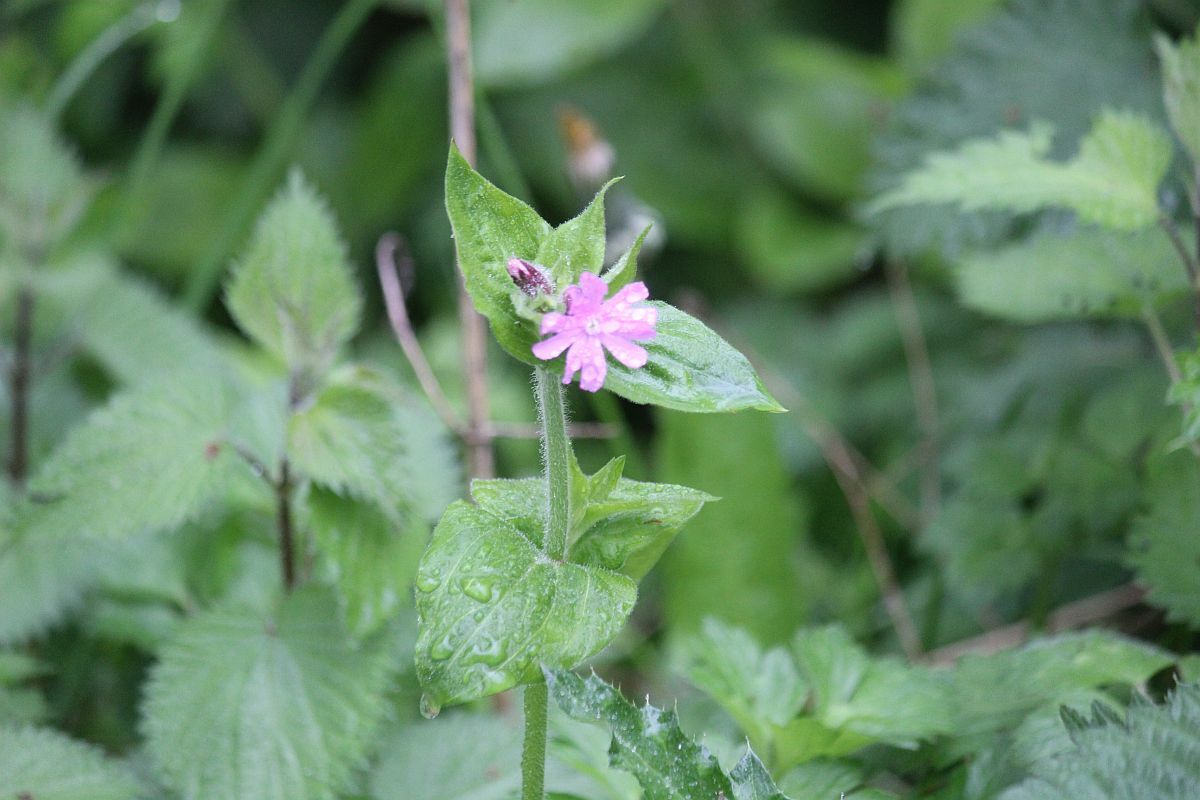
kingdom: Plantae
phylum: Tracheophyta
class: Magnoliopsida
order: Caryophyllales
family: Caryophyllaceae
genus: Silene
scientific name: Silene dioica
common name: Red campion
